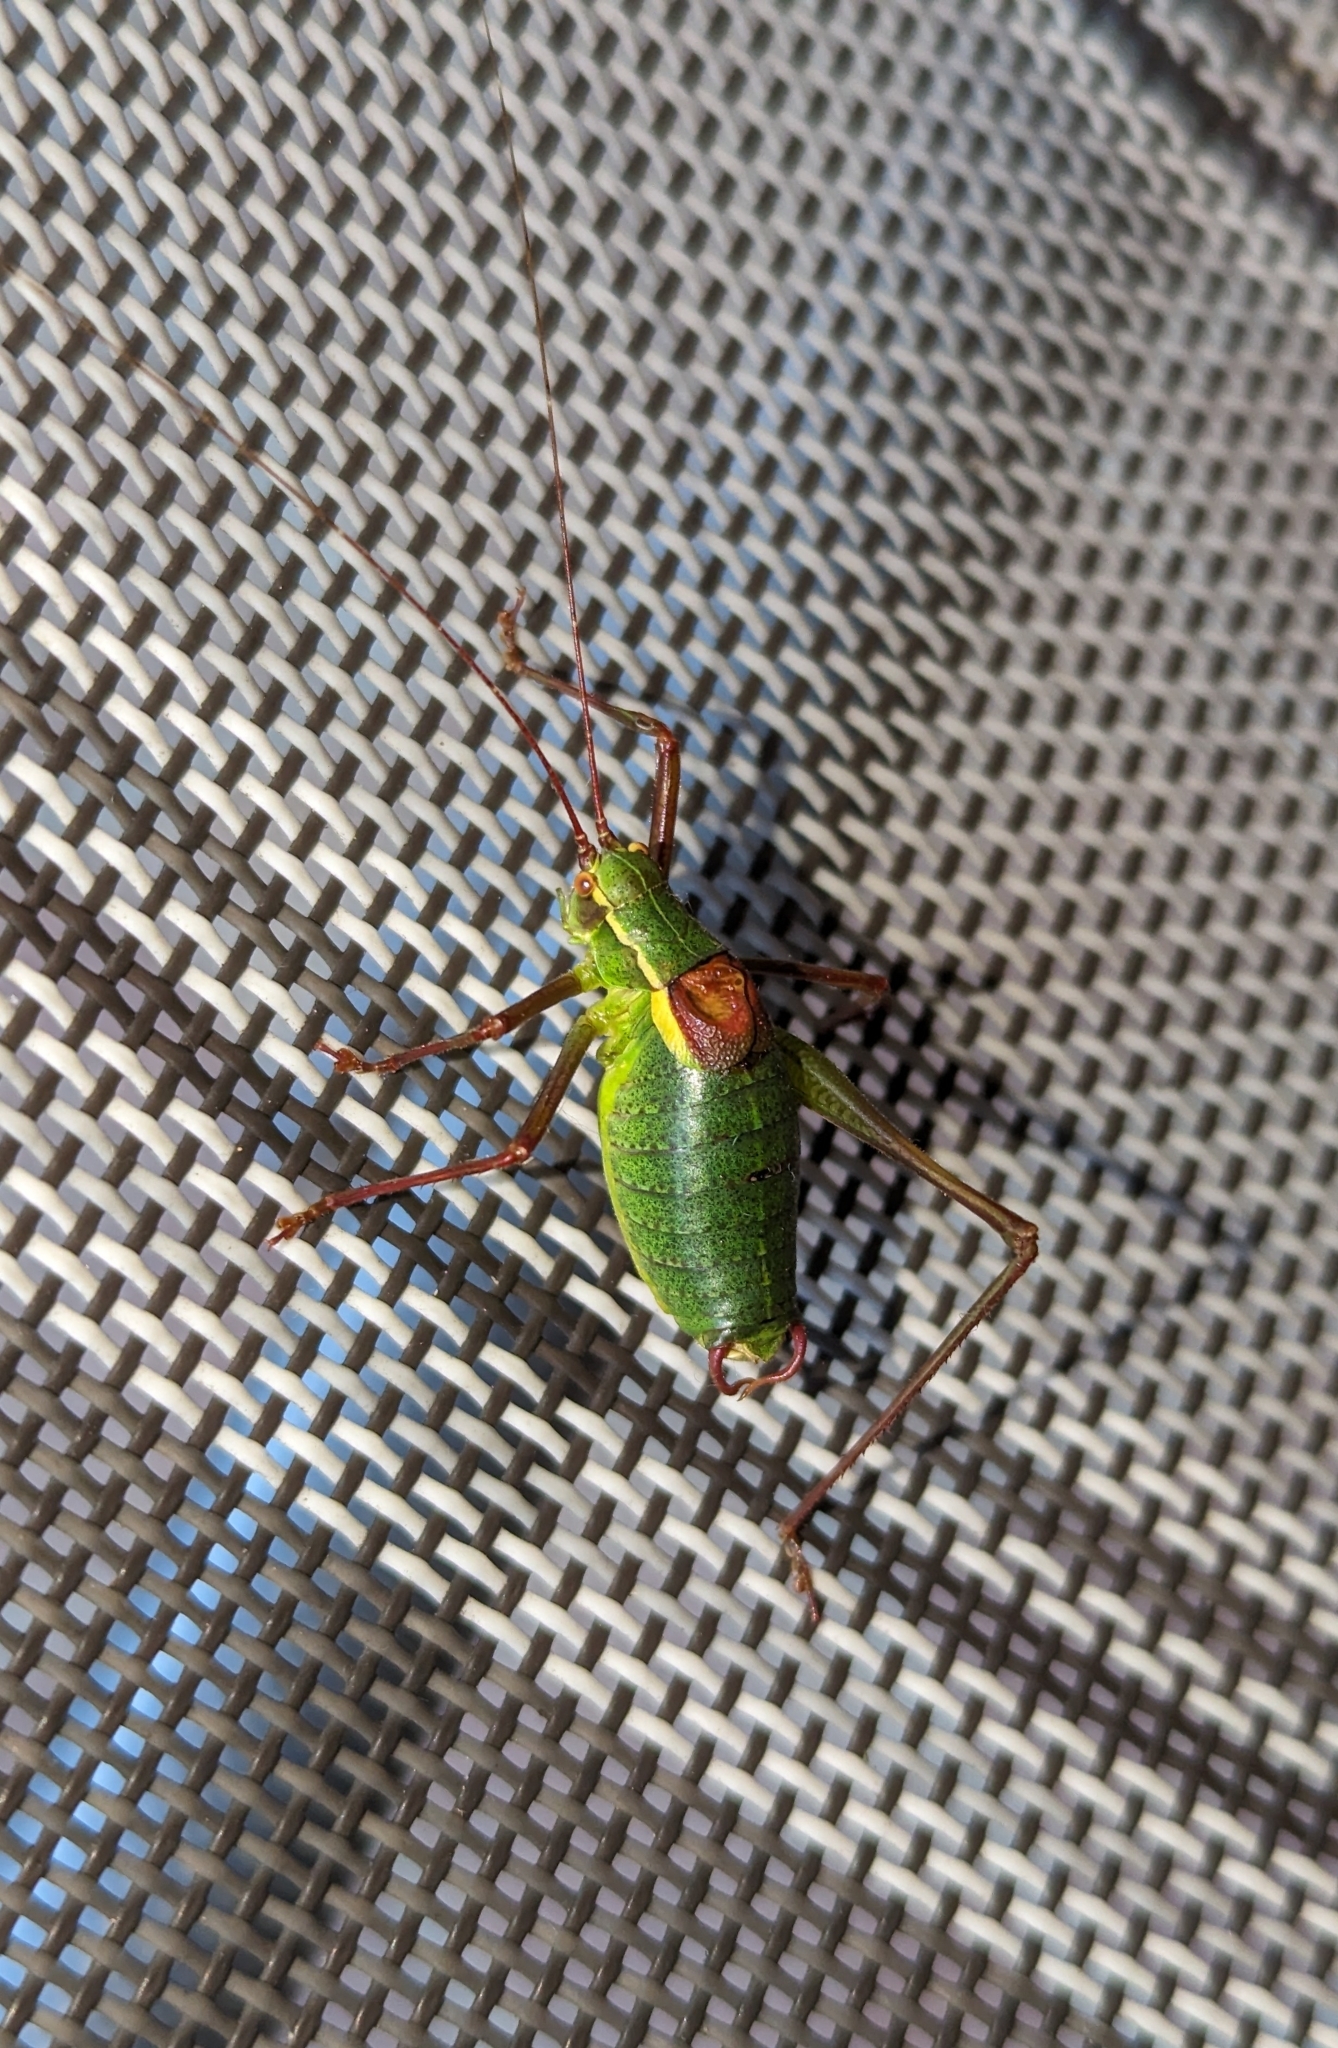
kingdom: Animalia
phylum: Arthropoda
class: Insecta
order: Orthoptera
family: Tettigoniidae
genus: Barbitistes
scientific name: Barbitistes serricauda
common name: Saw-tailed bush-cricket
